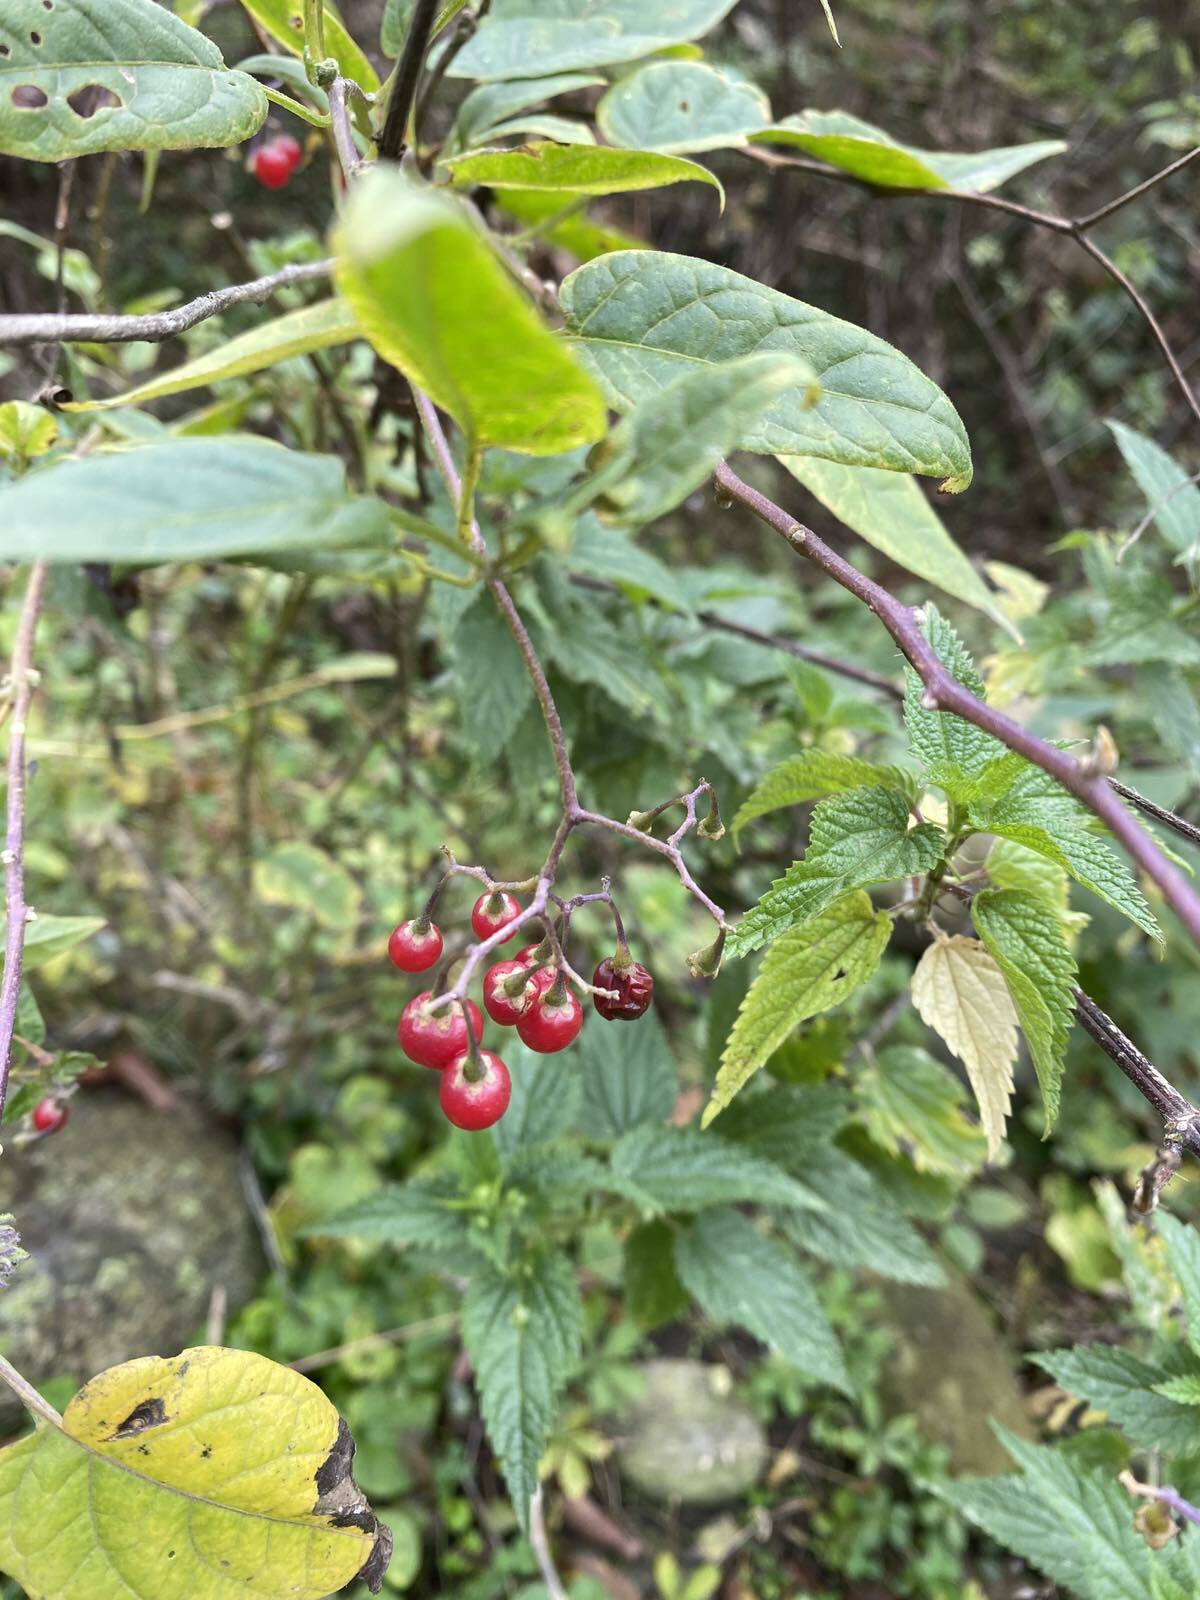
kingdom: Plantae
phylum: Tracheophyta
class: Magnoliopsida
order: Solanales
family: Solanaceae
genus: Solanum
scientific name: Solanum dulcamara
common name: Climbing nightshade
